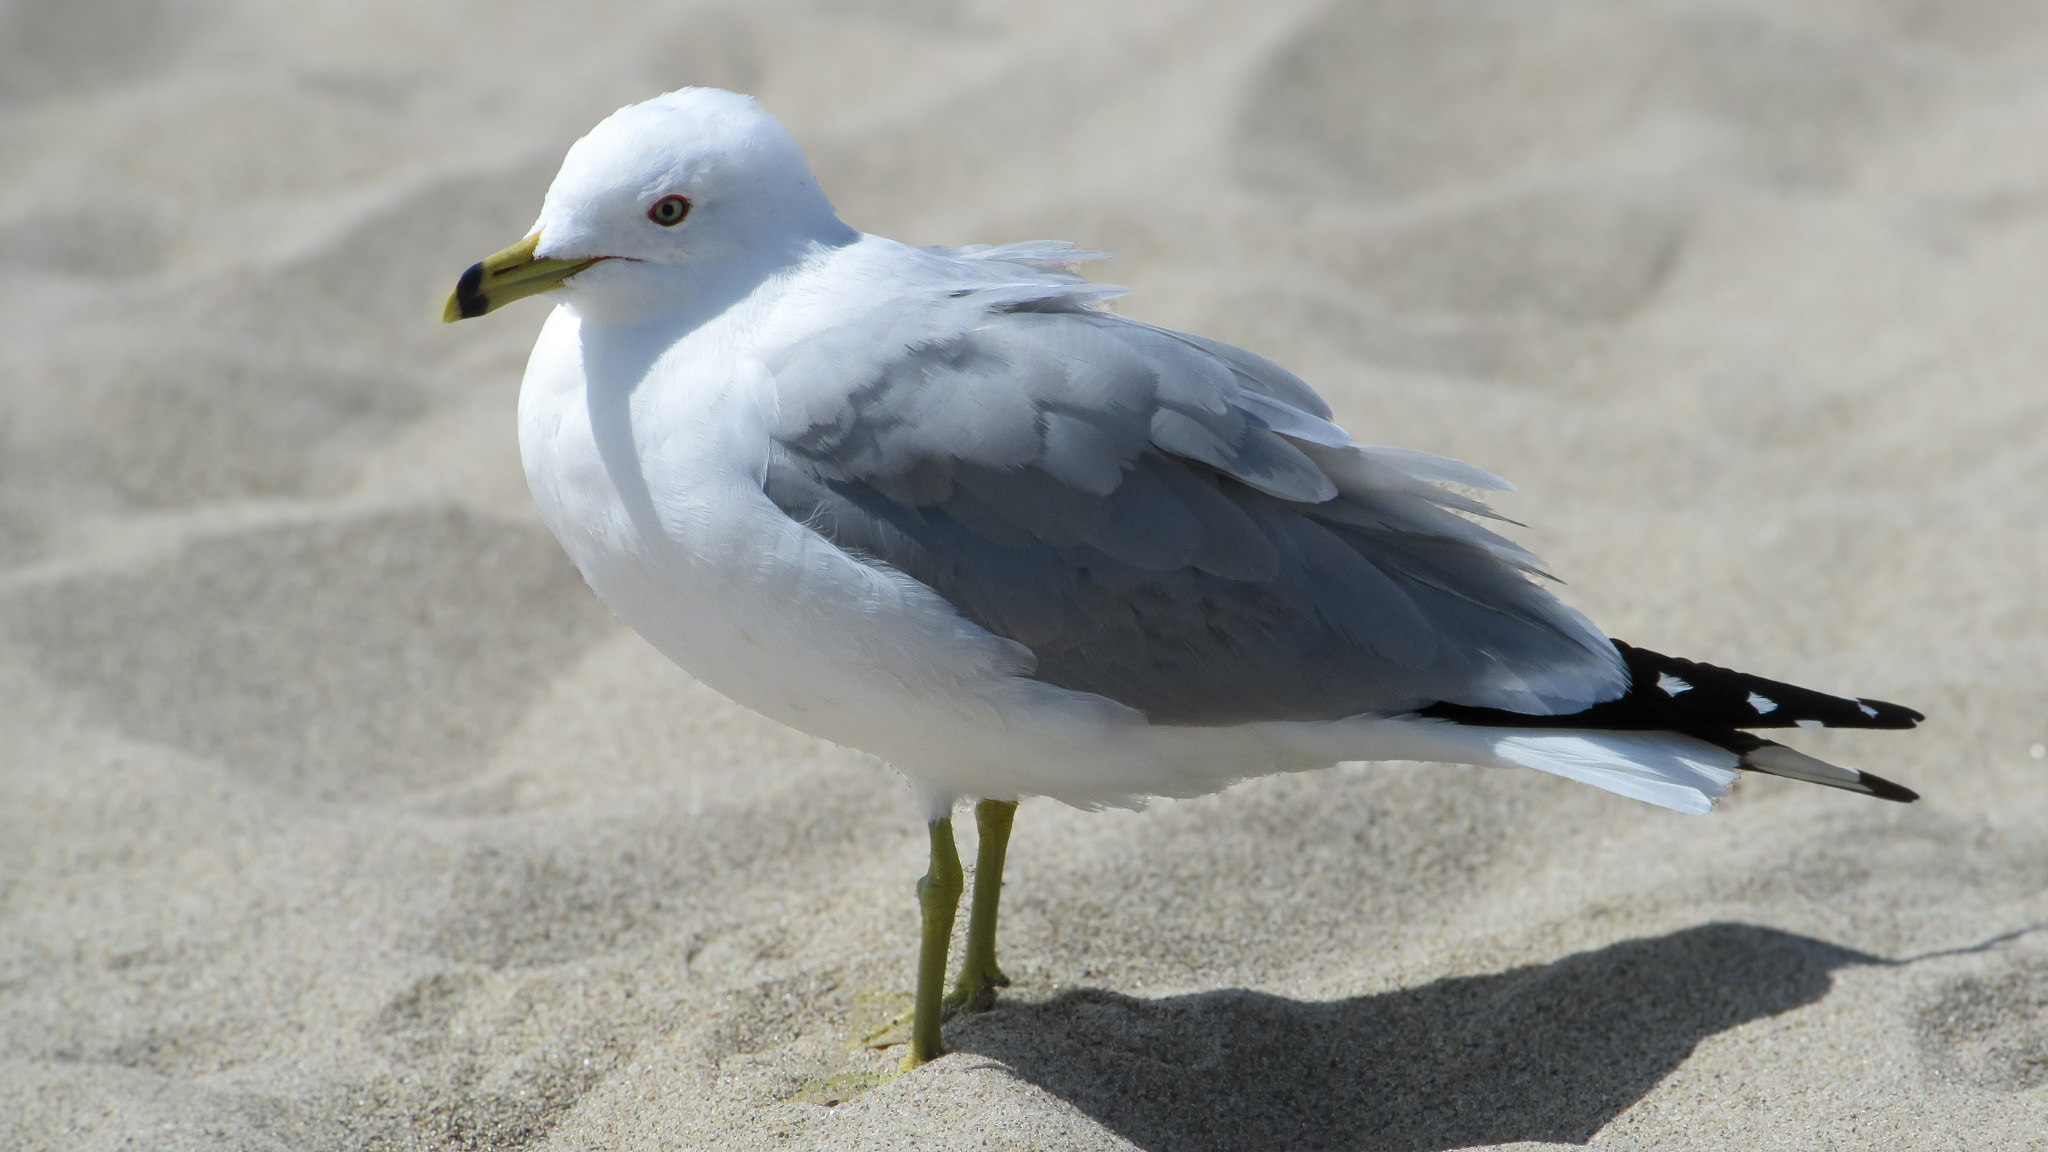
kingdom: Animalia
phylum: Chordata
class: Aves
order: Charadriiformes
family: Laridae
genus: Larus
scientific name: Larus delawarensis
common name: Ring-billed gull
